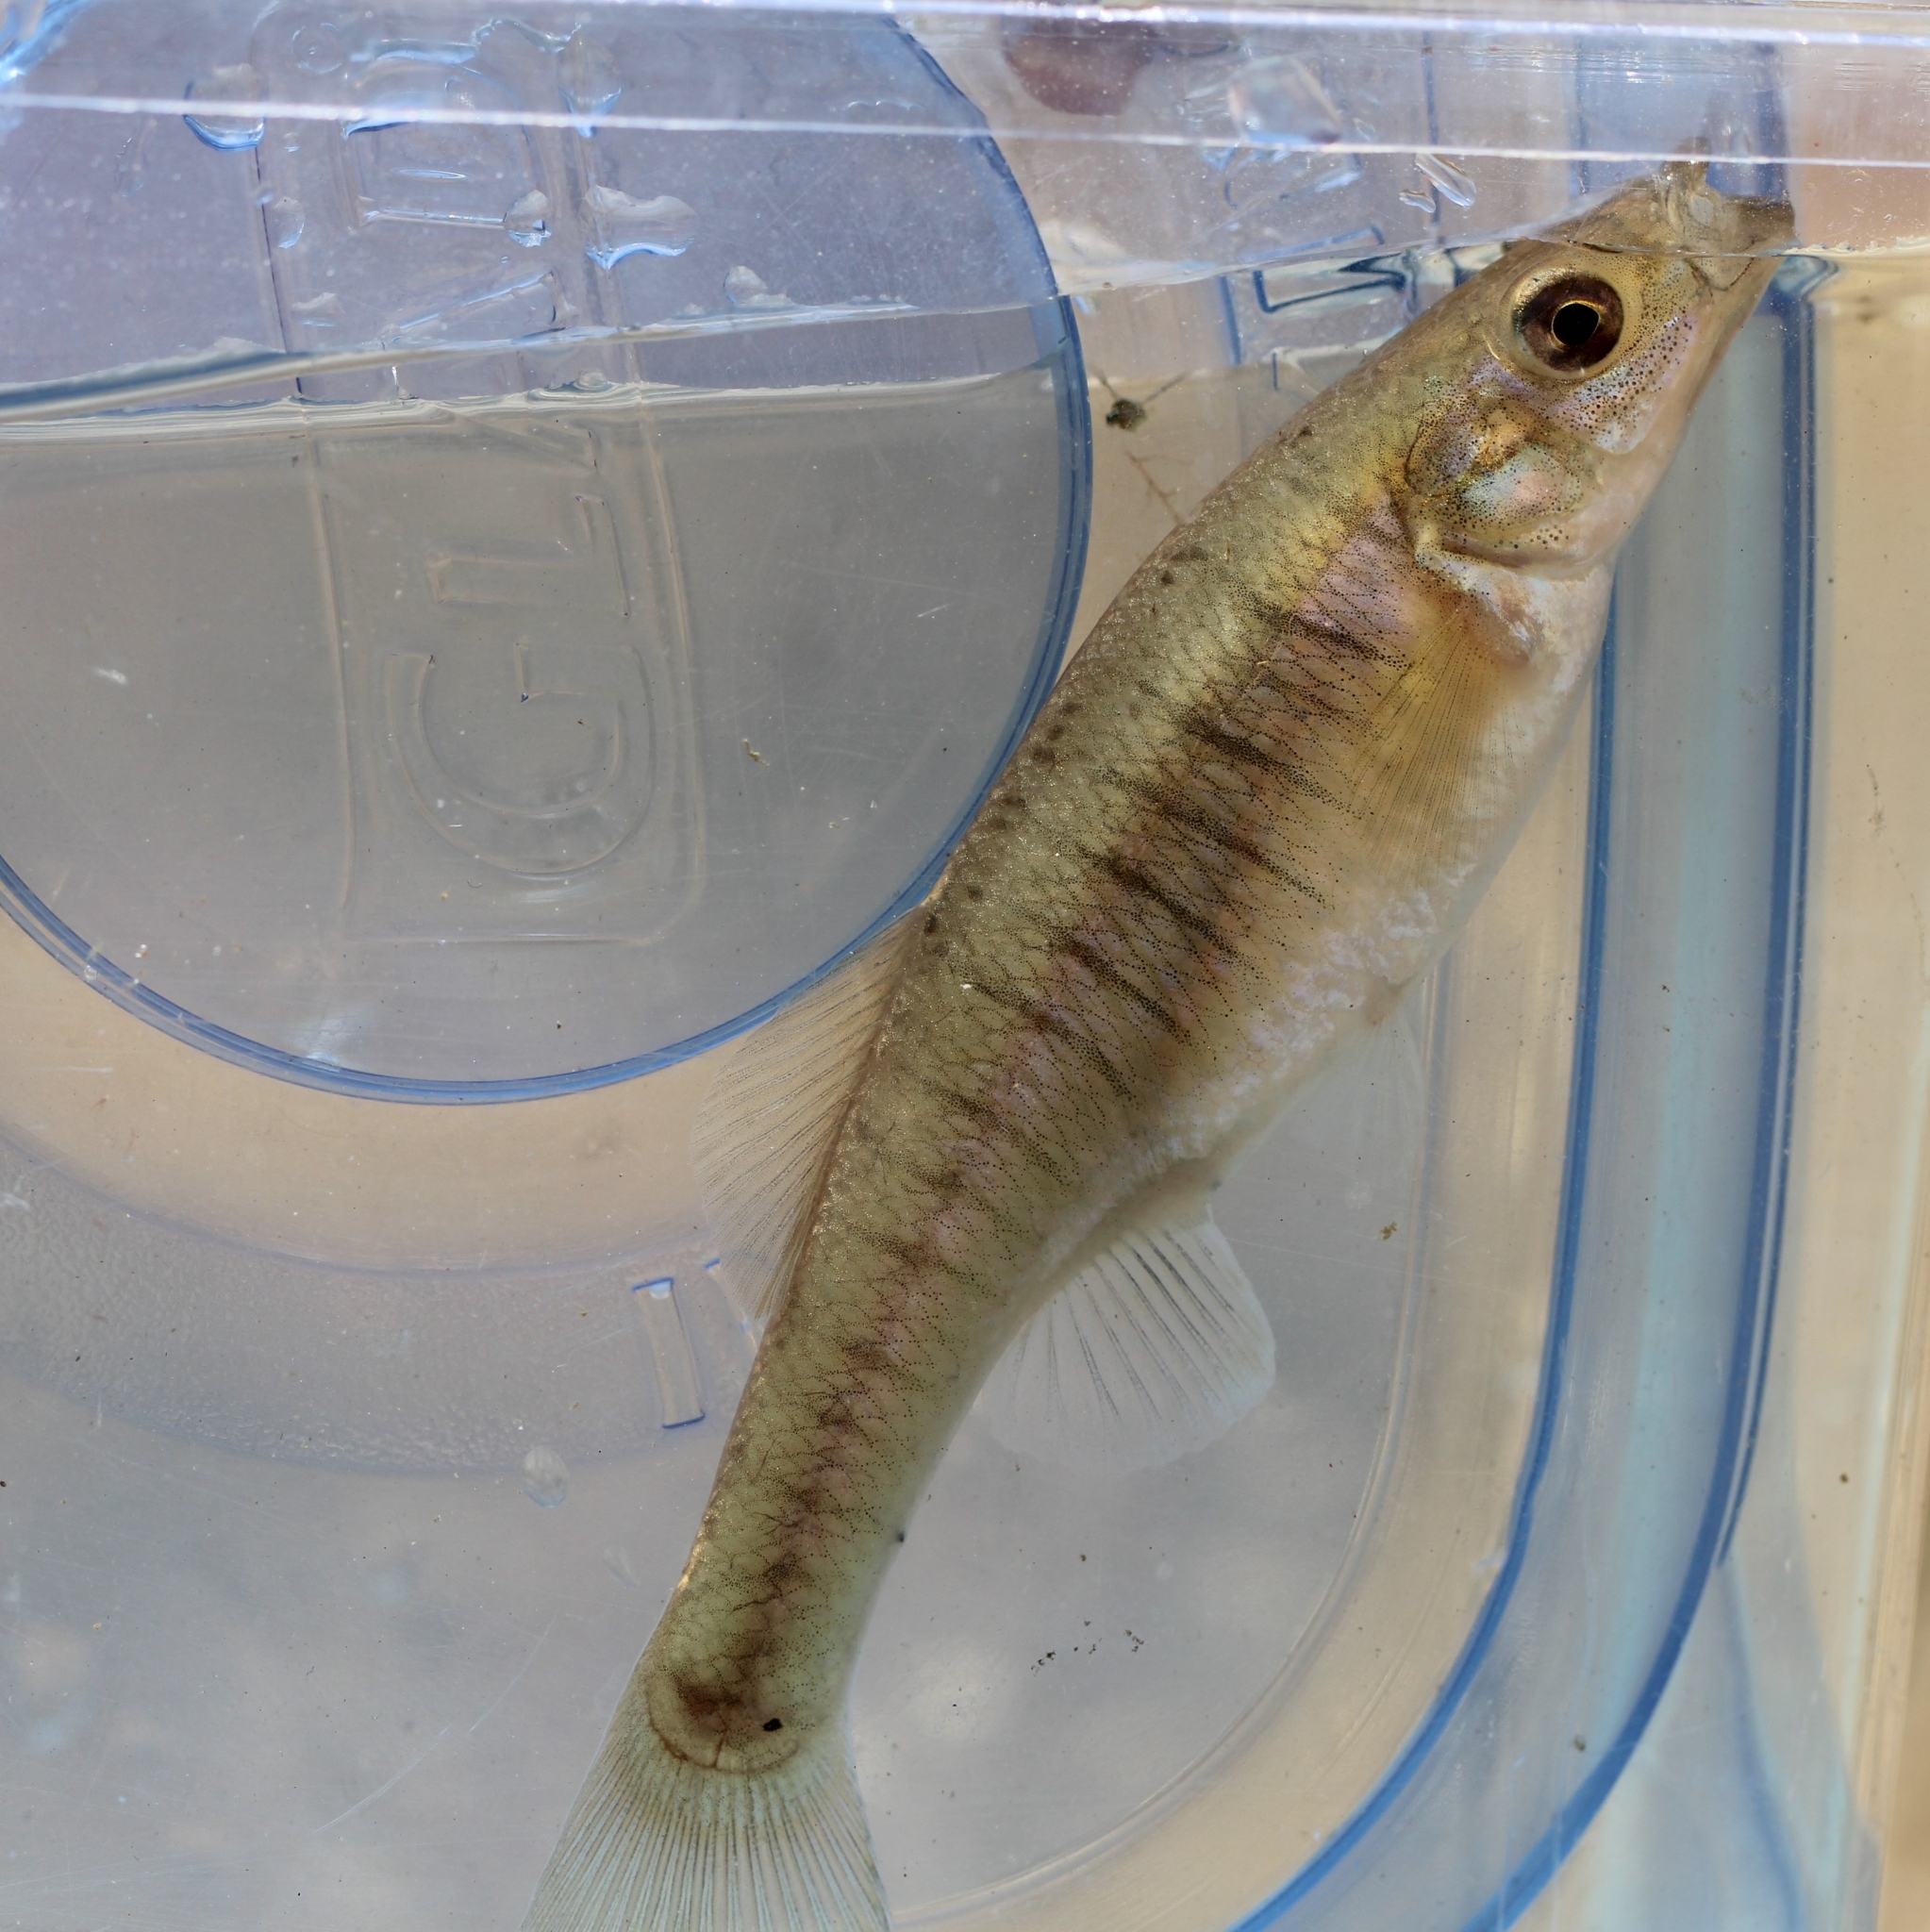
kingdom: Animalia
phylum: Chordata
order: Cyprinodontiformes
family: Fundulidae
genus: Fundulus
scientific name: Fundulus diaphanus
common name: Banded killifish
